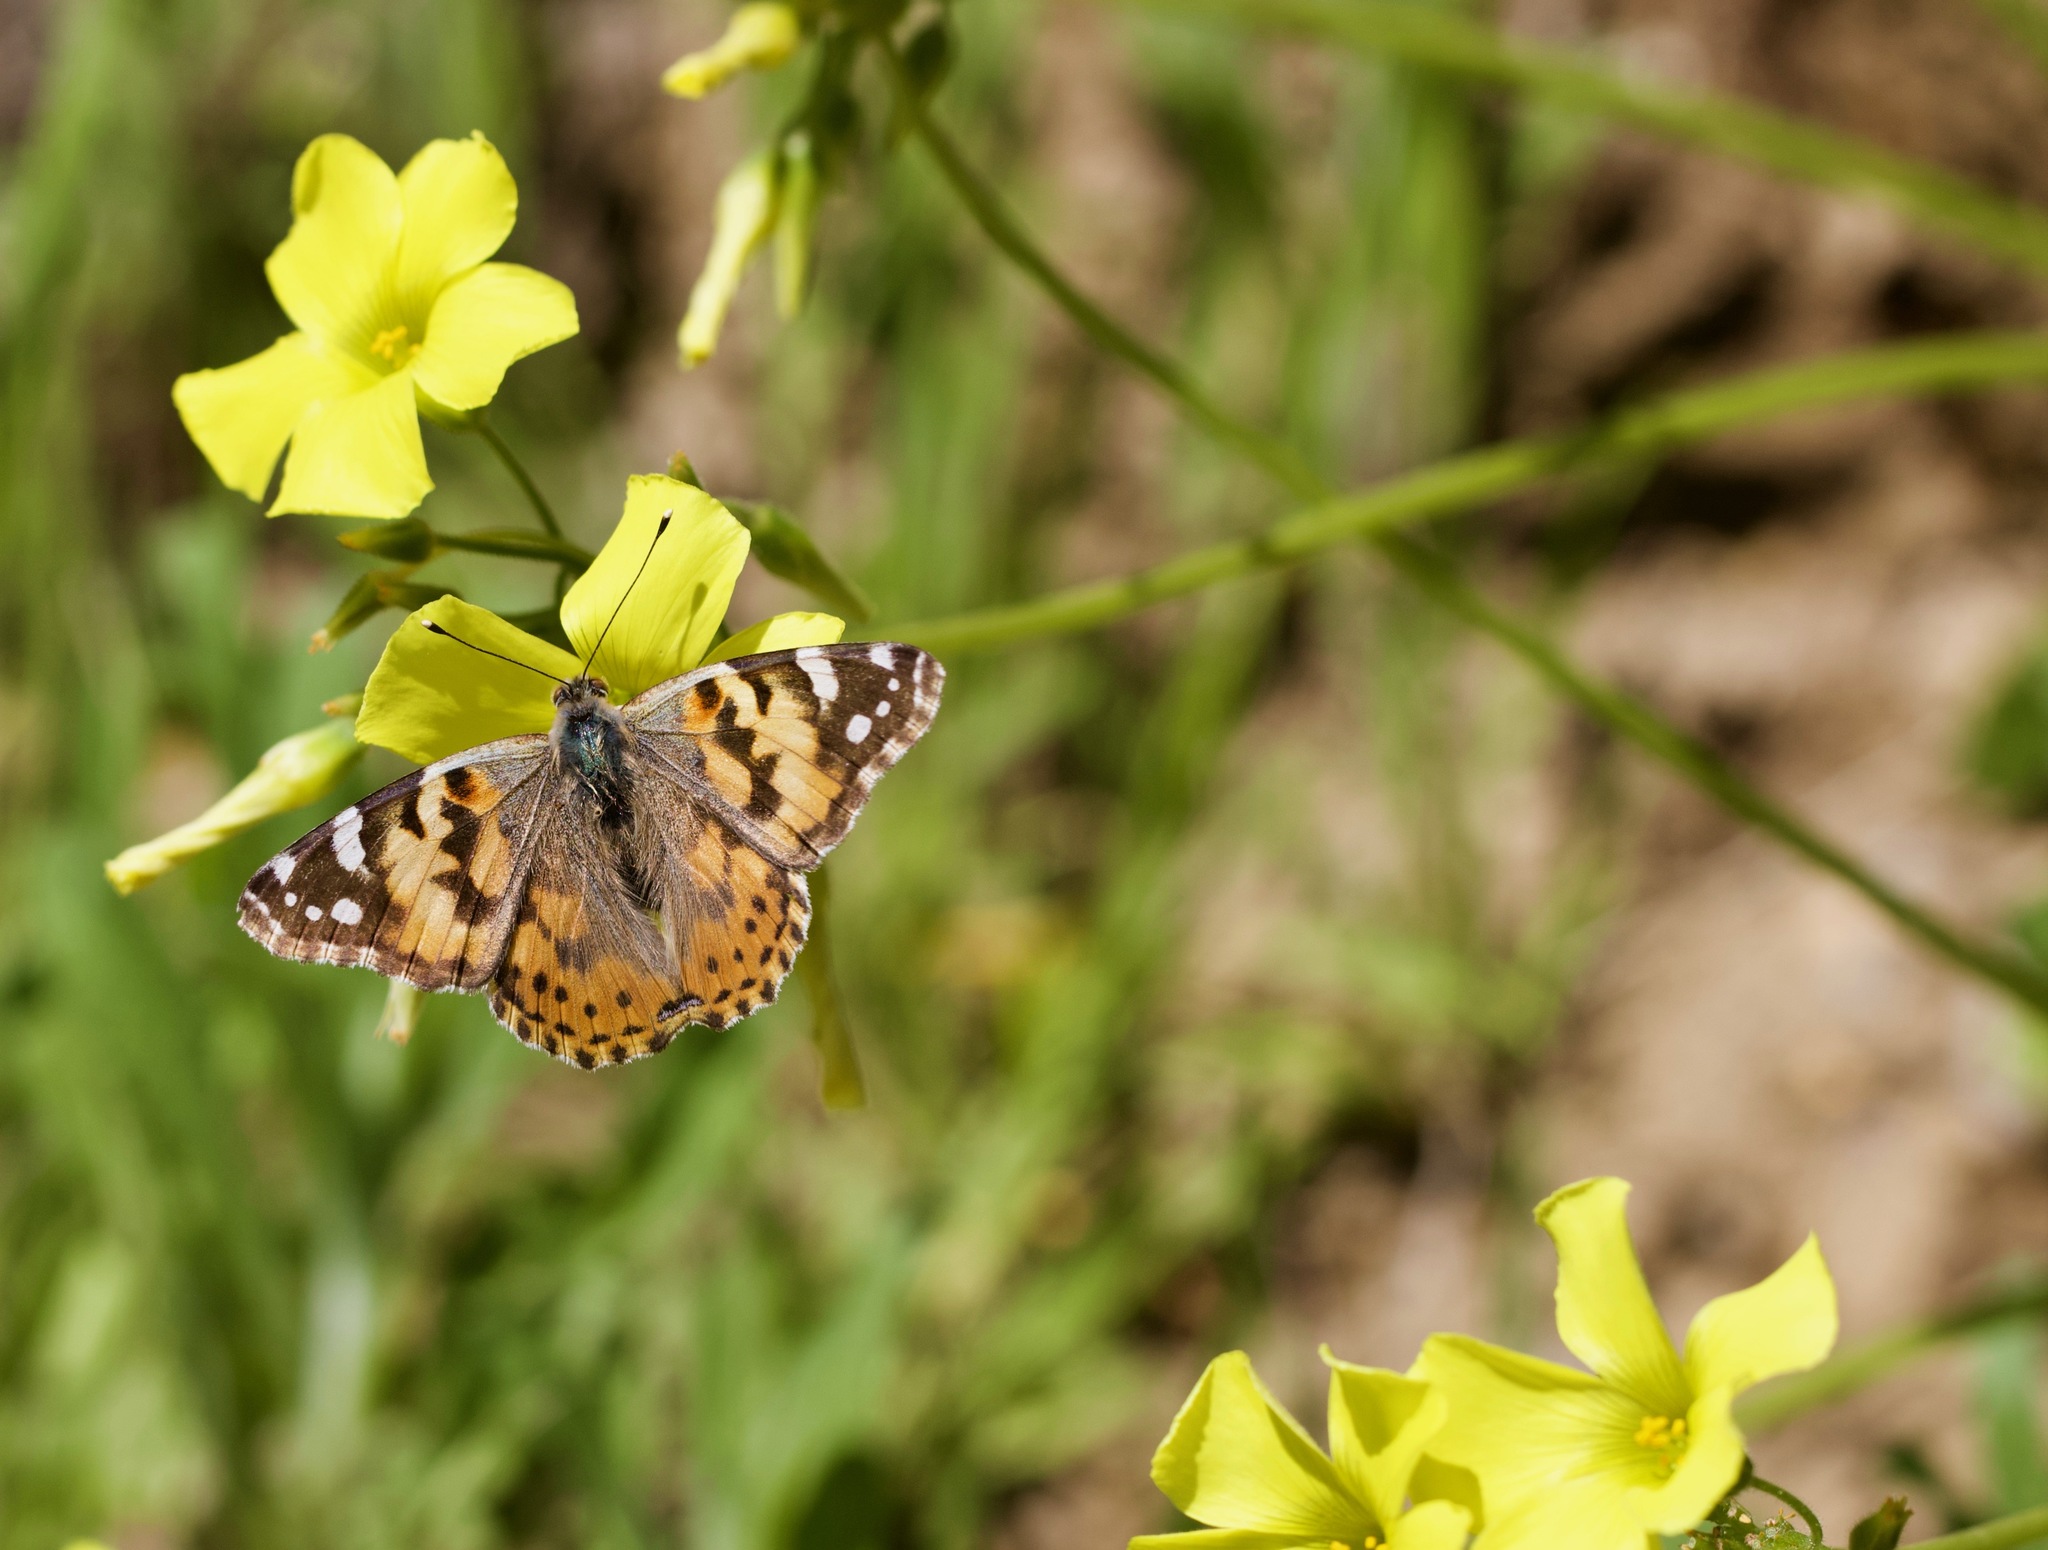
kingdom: Animalia
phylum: Arthropoda
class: Insecta
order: Lepidoptera
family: Nymphalidae
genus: Vanessa
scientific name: Vanessa cardui
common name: Painted lady
